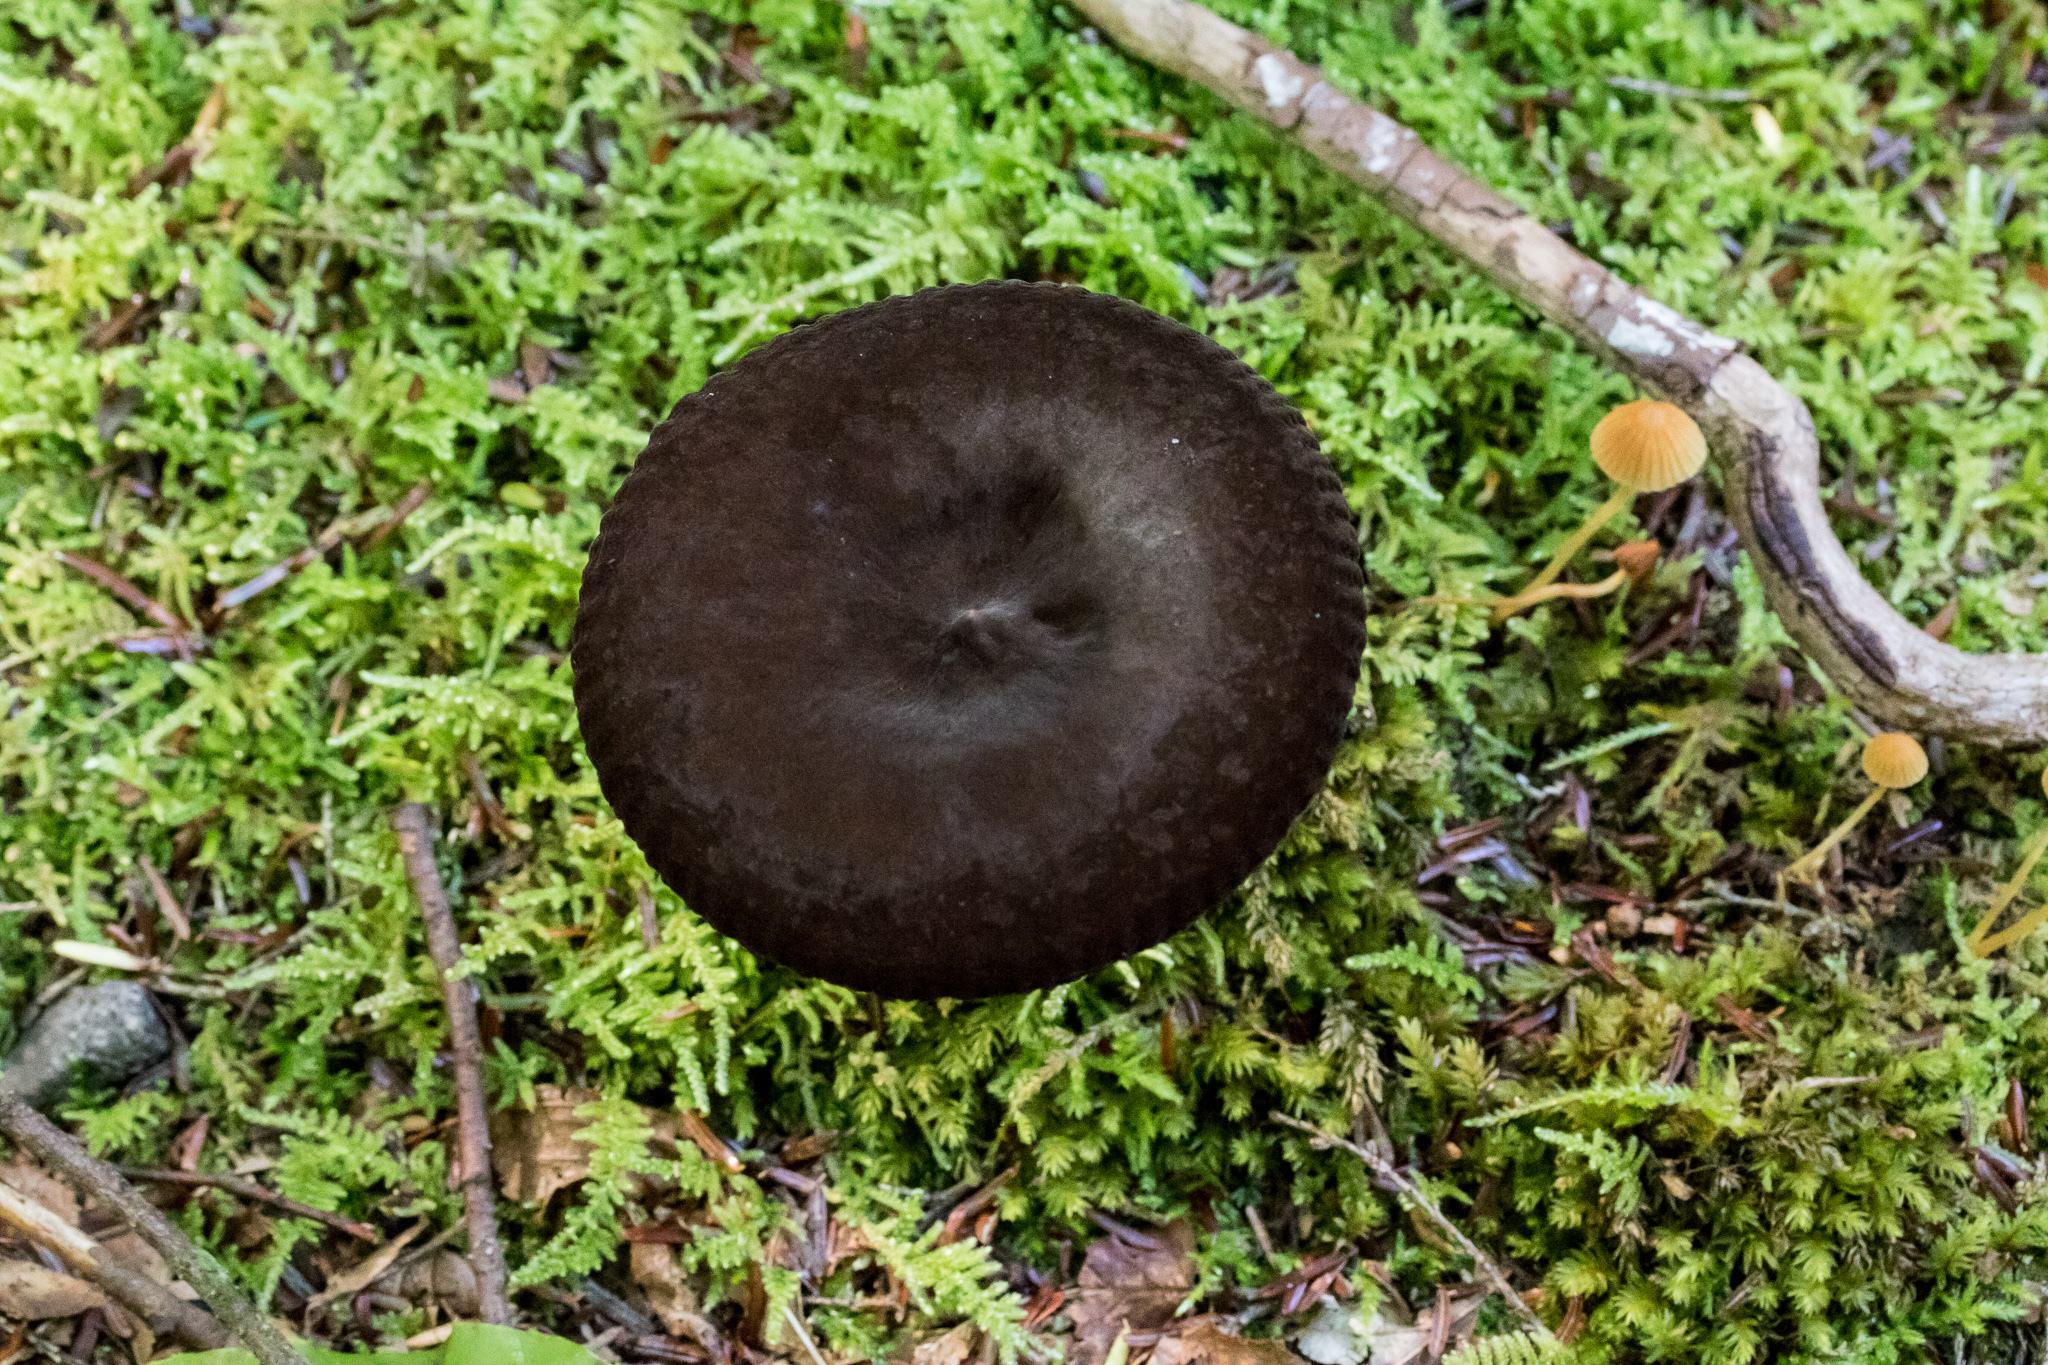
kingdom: Fungi
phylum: Basidiomycota
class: Agaricomycetes
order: Russulales
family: Russulaceae
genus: Lactarius
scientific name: Lactarius lignyotus
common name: Velvet milkcap
